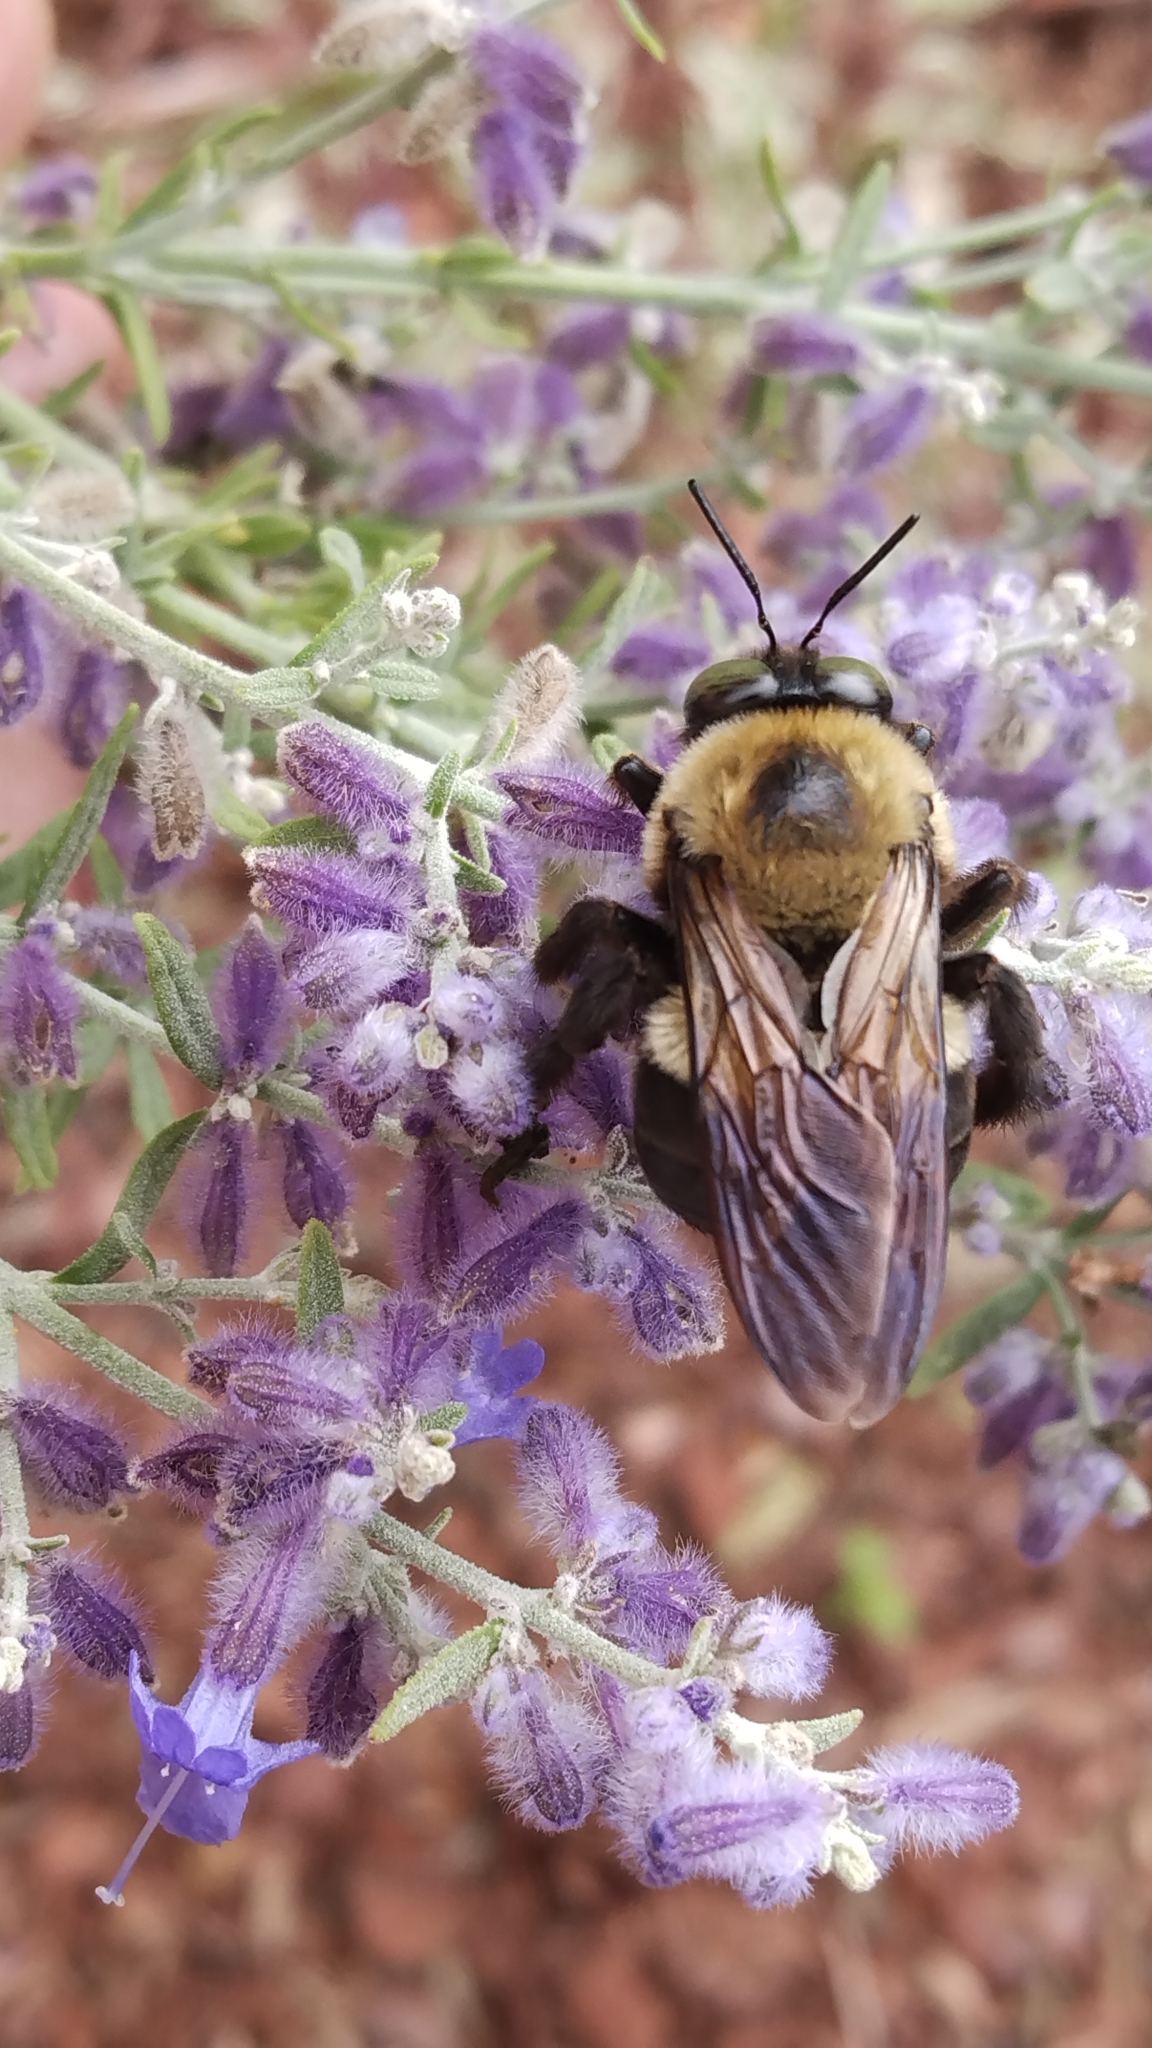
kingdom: Animalia
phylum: Arthropoda
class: Insecta
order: Hymenoptera
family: Apidae
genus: Xylocopa
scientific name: Xylocopa virginica
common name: Carpenter bee
